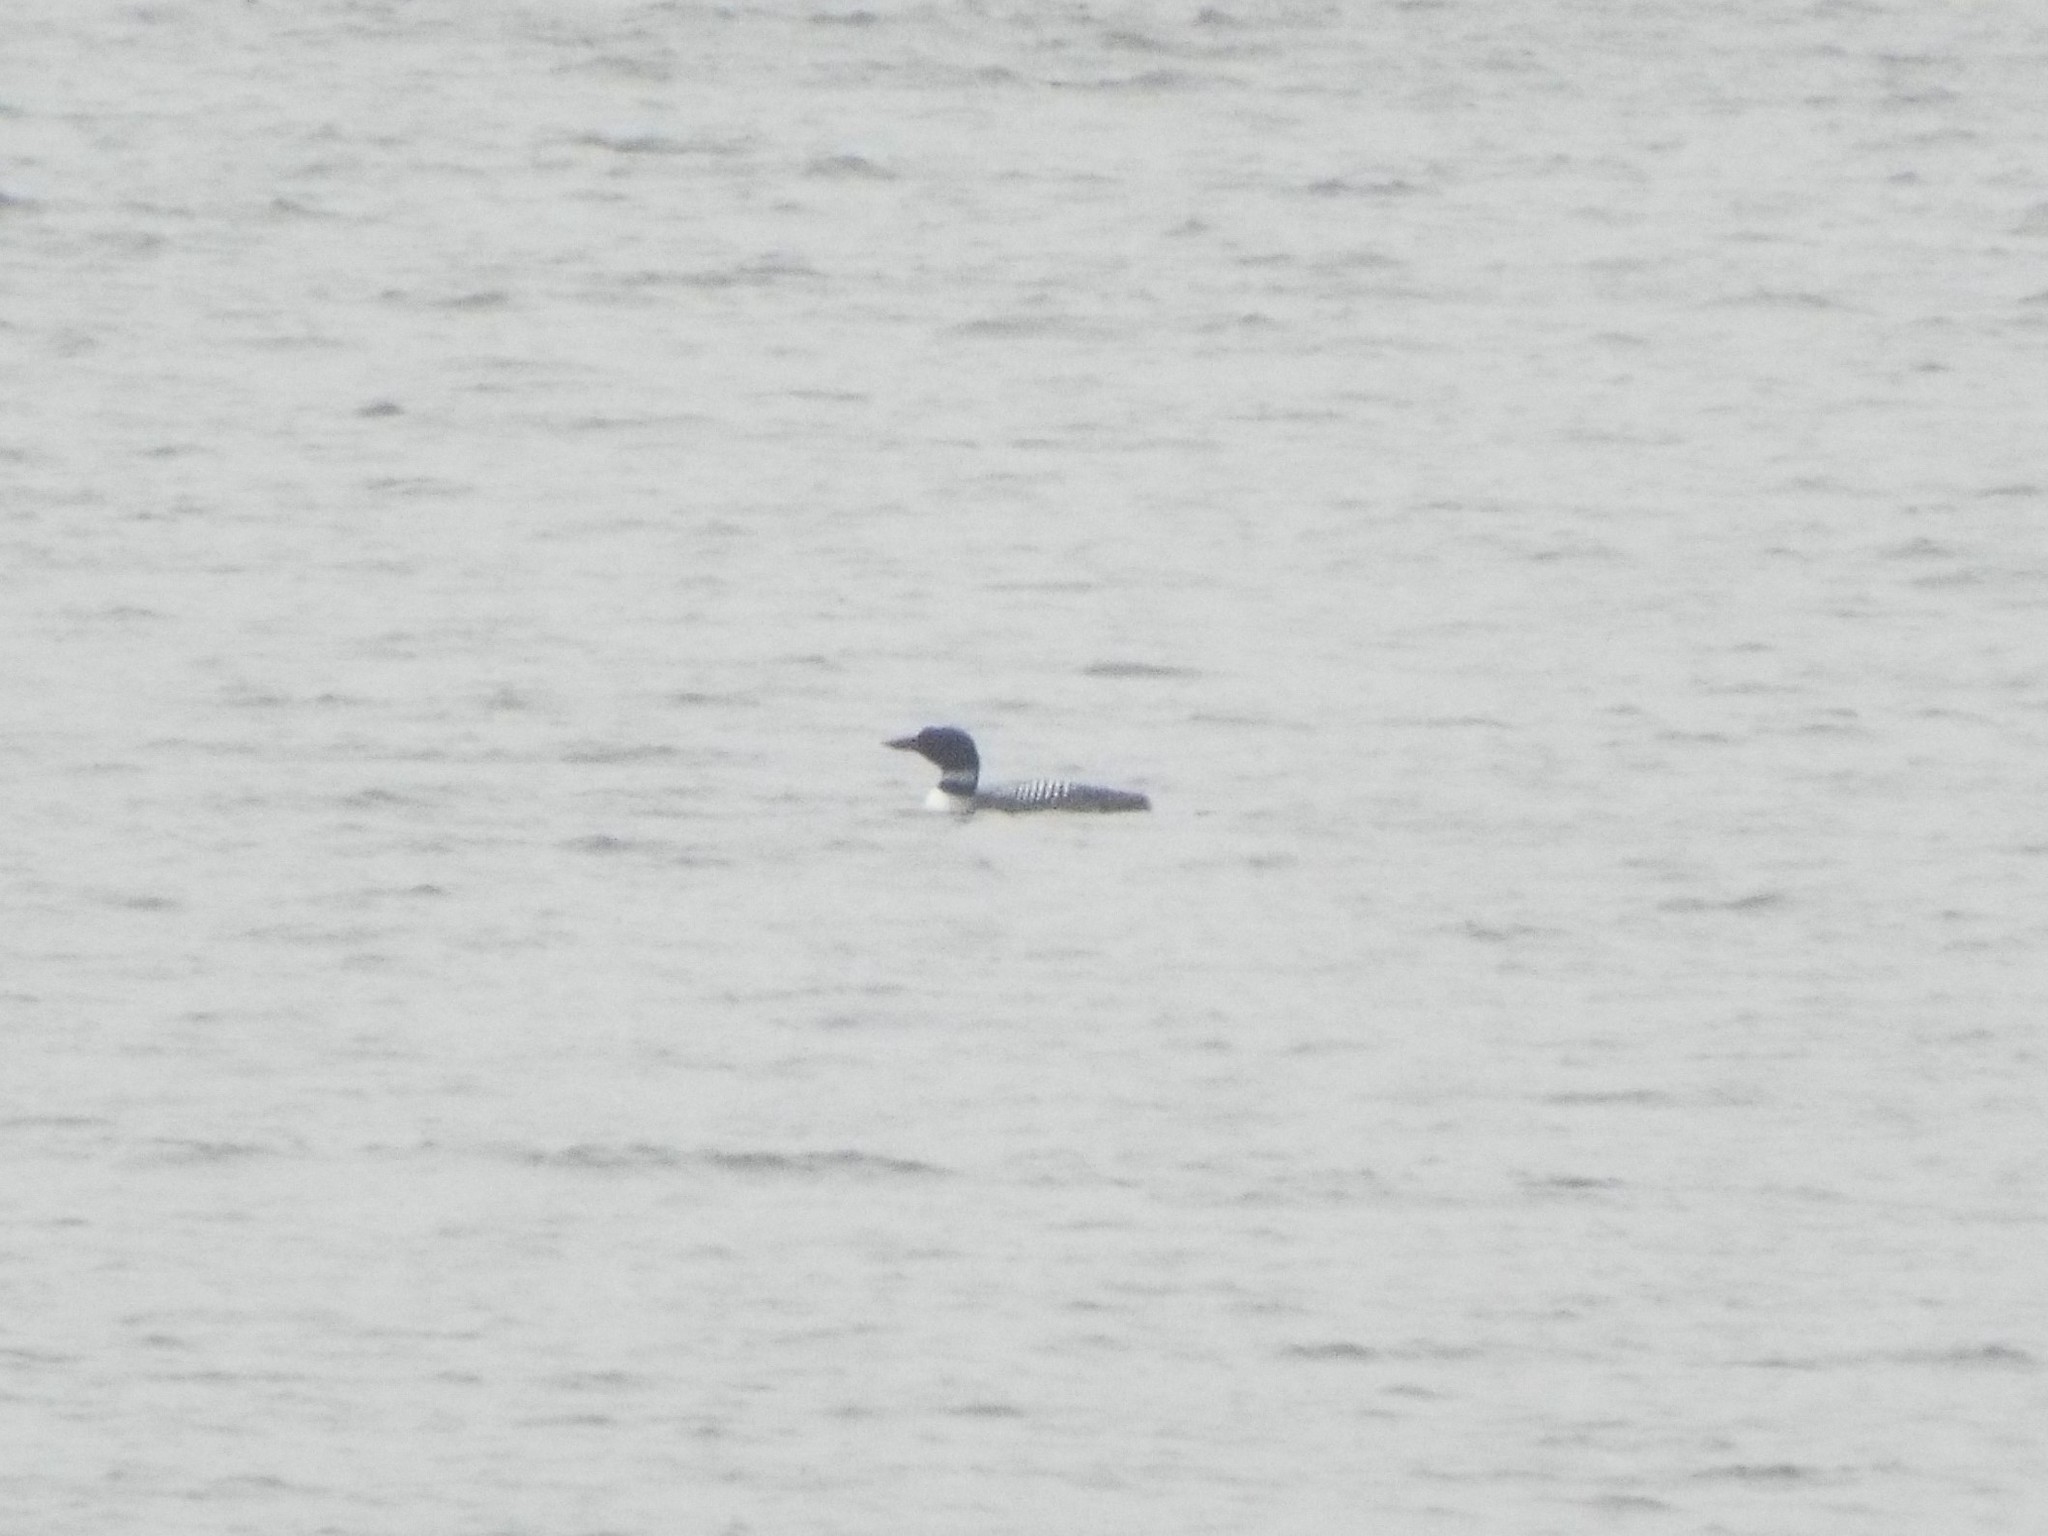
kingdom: Animalia
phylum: Chordata
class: Aves
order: Gaviiformes
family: Gaviidae
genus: Gavia
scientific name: Gavia immer
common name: Common loon
